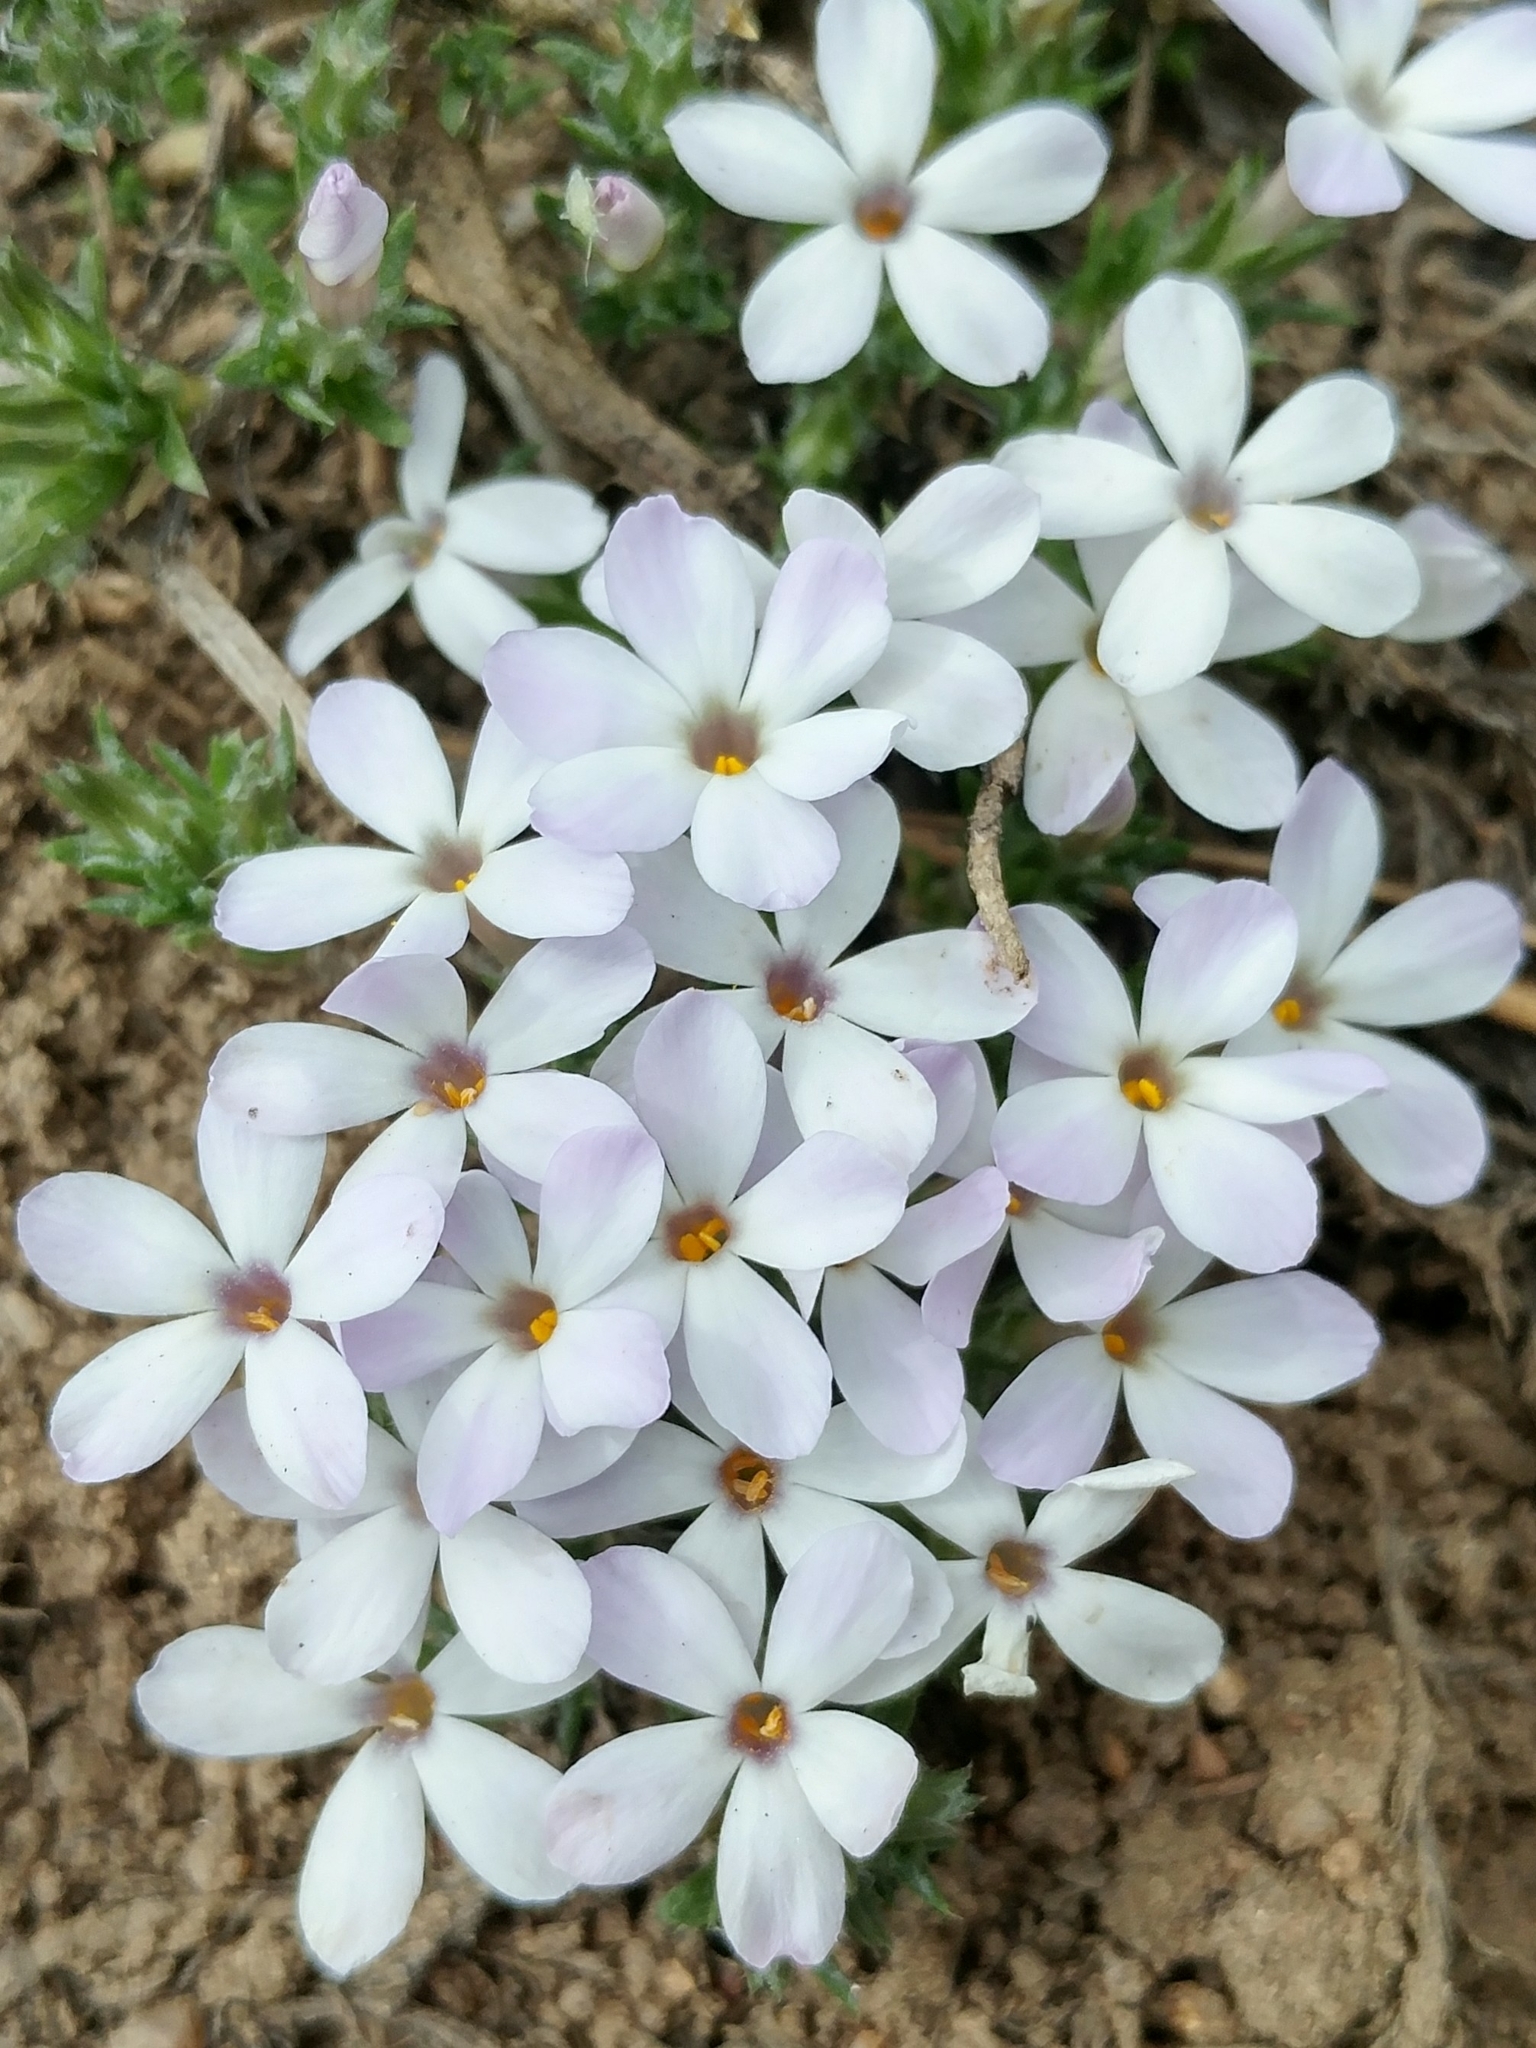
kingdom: Plantae
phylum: Tracheophyta
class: Magnoliopsida
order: Ericales
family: Polemoniaceae
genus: Phlox
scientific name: Phlox diffusa
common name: Mat phlox
